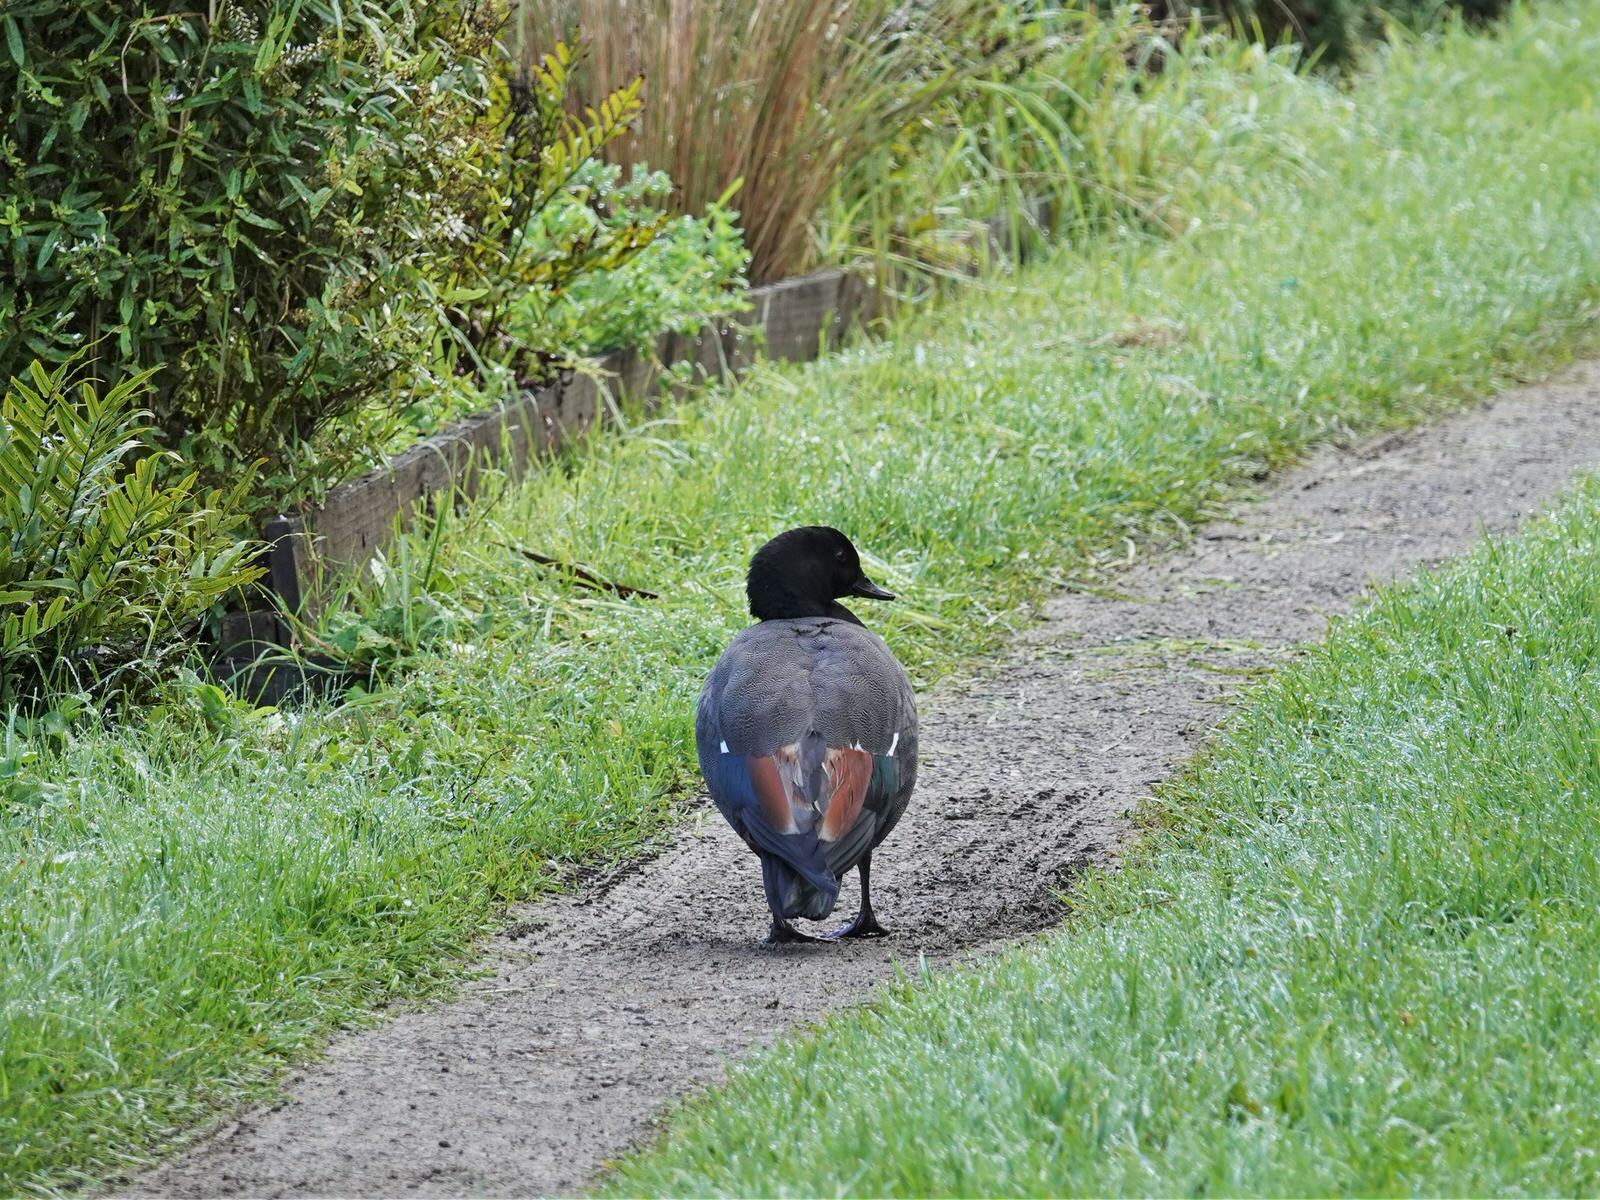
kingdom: Animalia
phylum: Chordata
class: Aves
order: Anseriformes
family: Anatidae
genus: Tadorna
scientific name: Tadorna variegata
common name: Paradise shelduck
